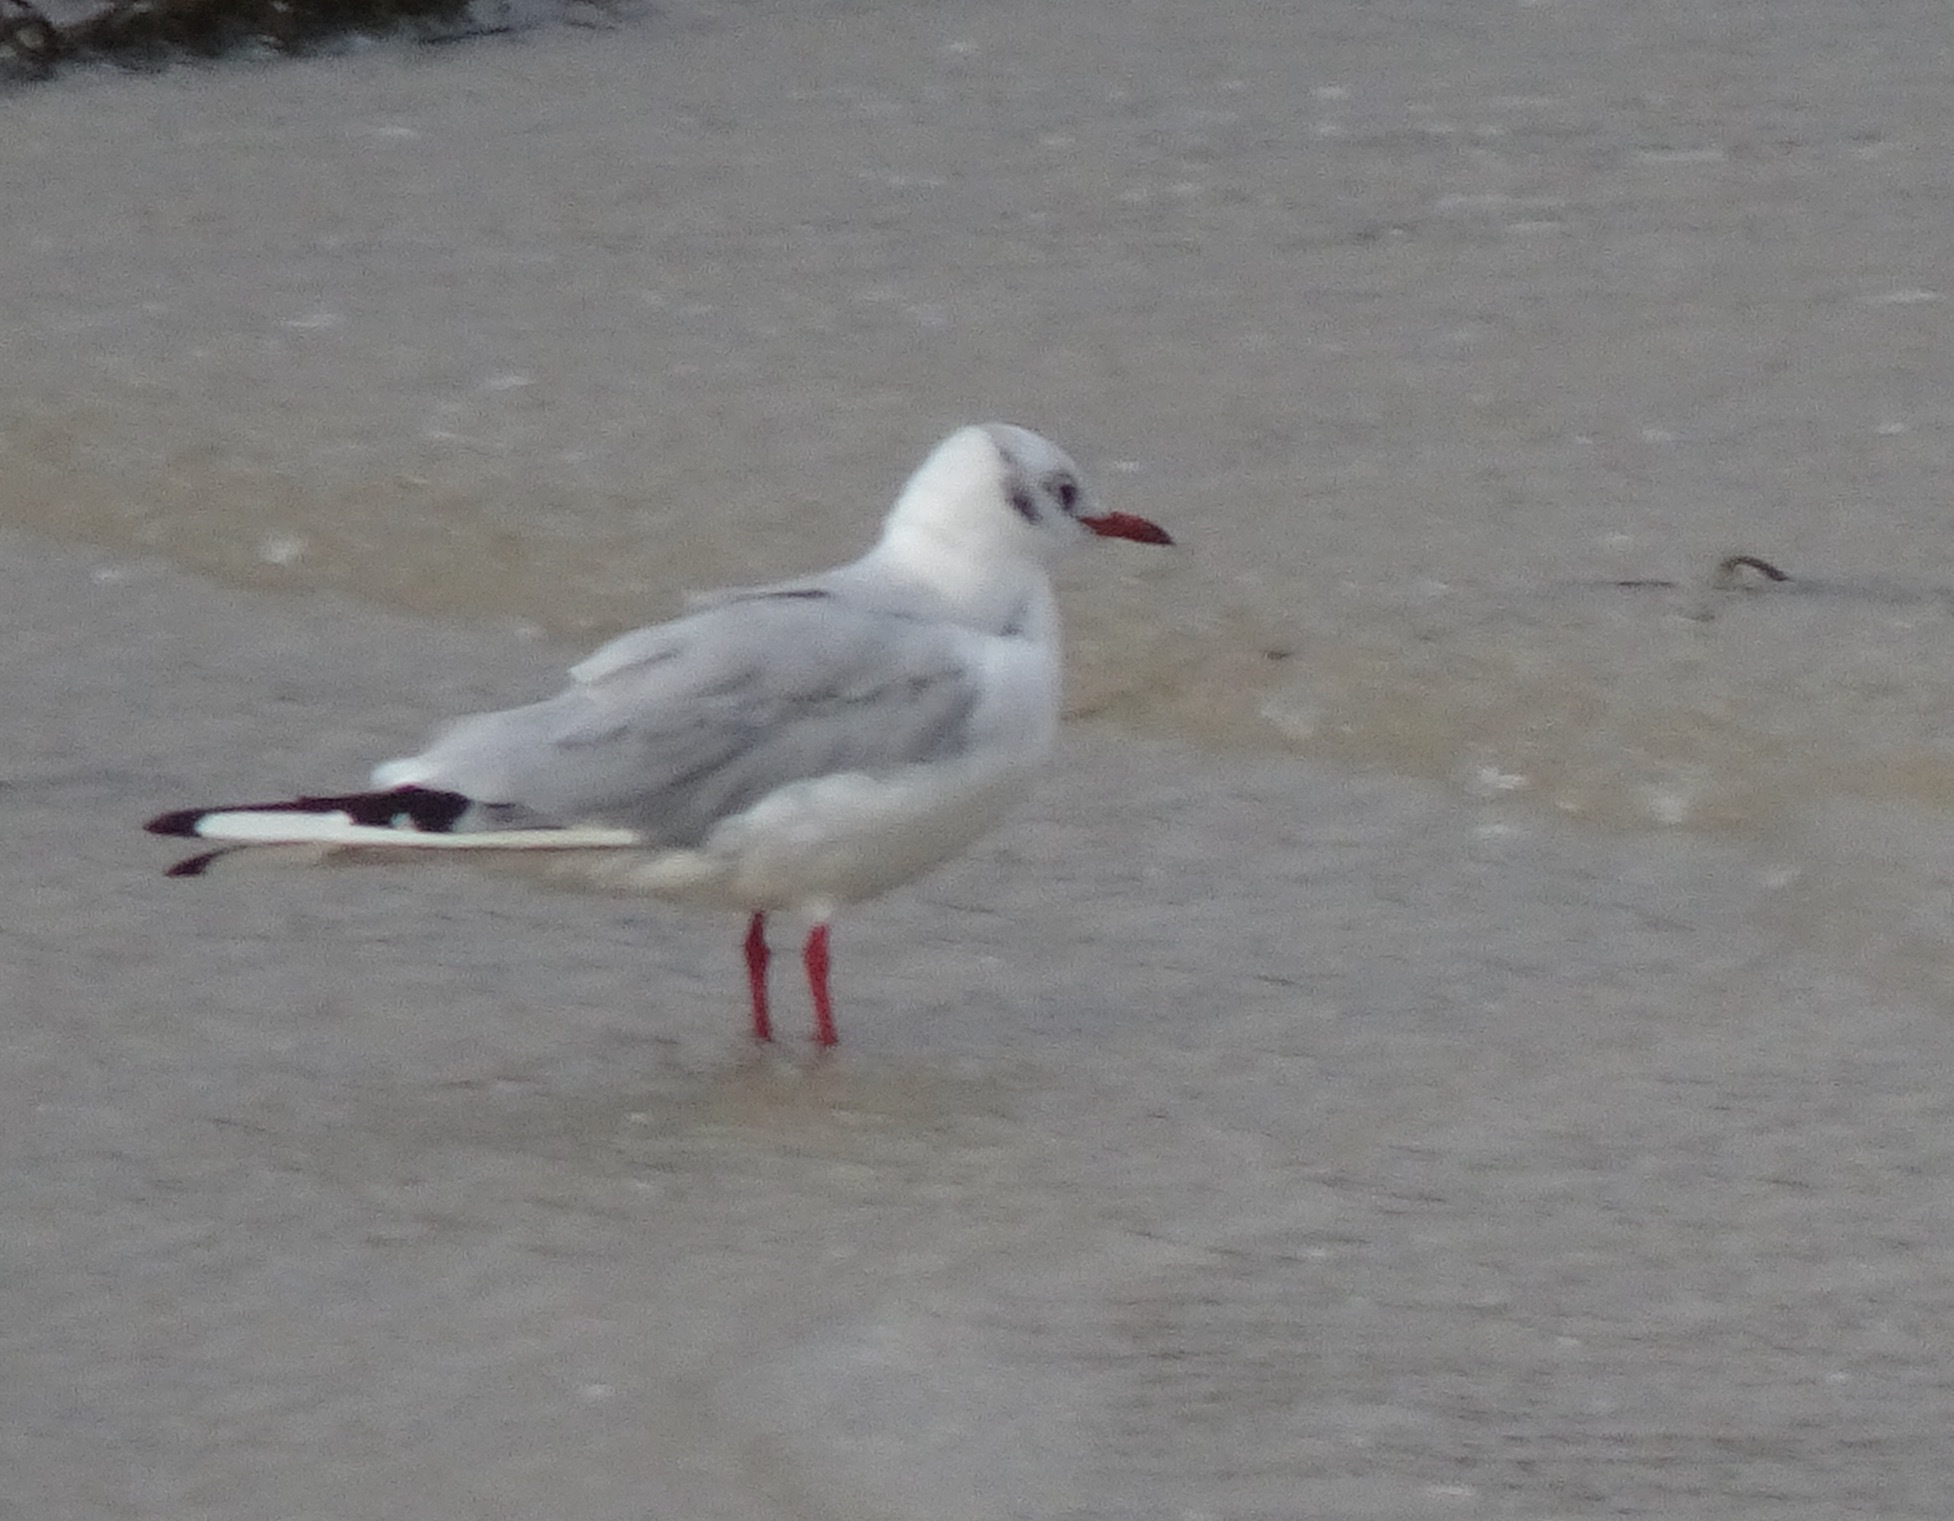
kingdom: Animalia
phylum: Chordata
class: Aves
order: Charadriiformes
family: Laridae
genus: Chroicocephalus
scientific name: Chroicocephalus ridibundus
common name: Black-headed gull
